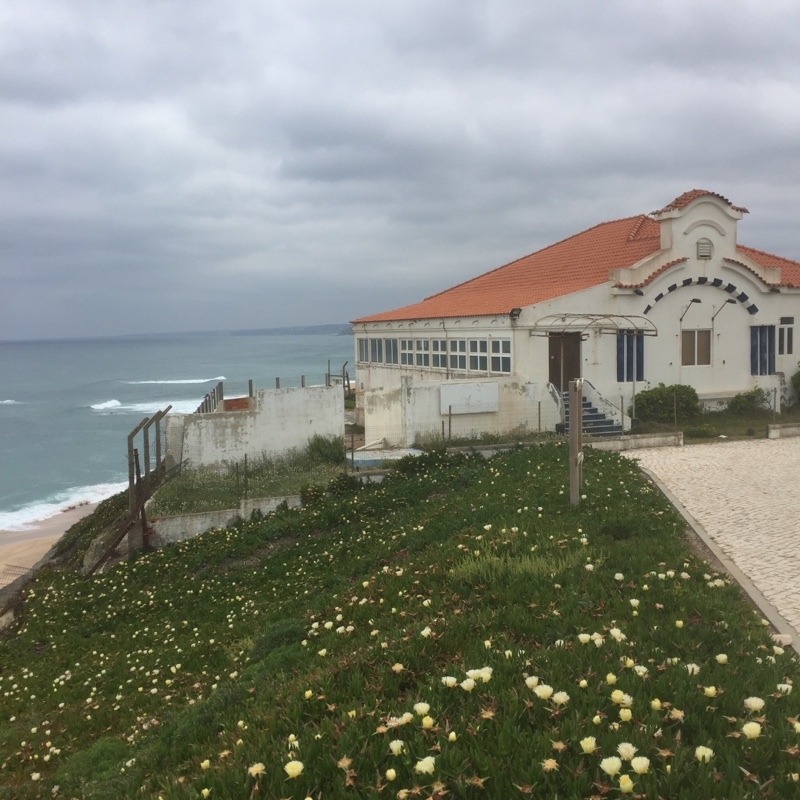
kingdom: Plantae
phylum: Tracheophyta
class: Magnoliopsida
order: Caryophyllales
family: Amaranthaceae
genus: Beta
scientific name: Beta vulgaris
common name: Beet
